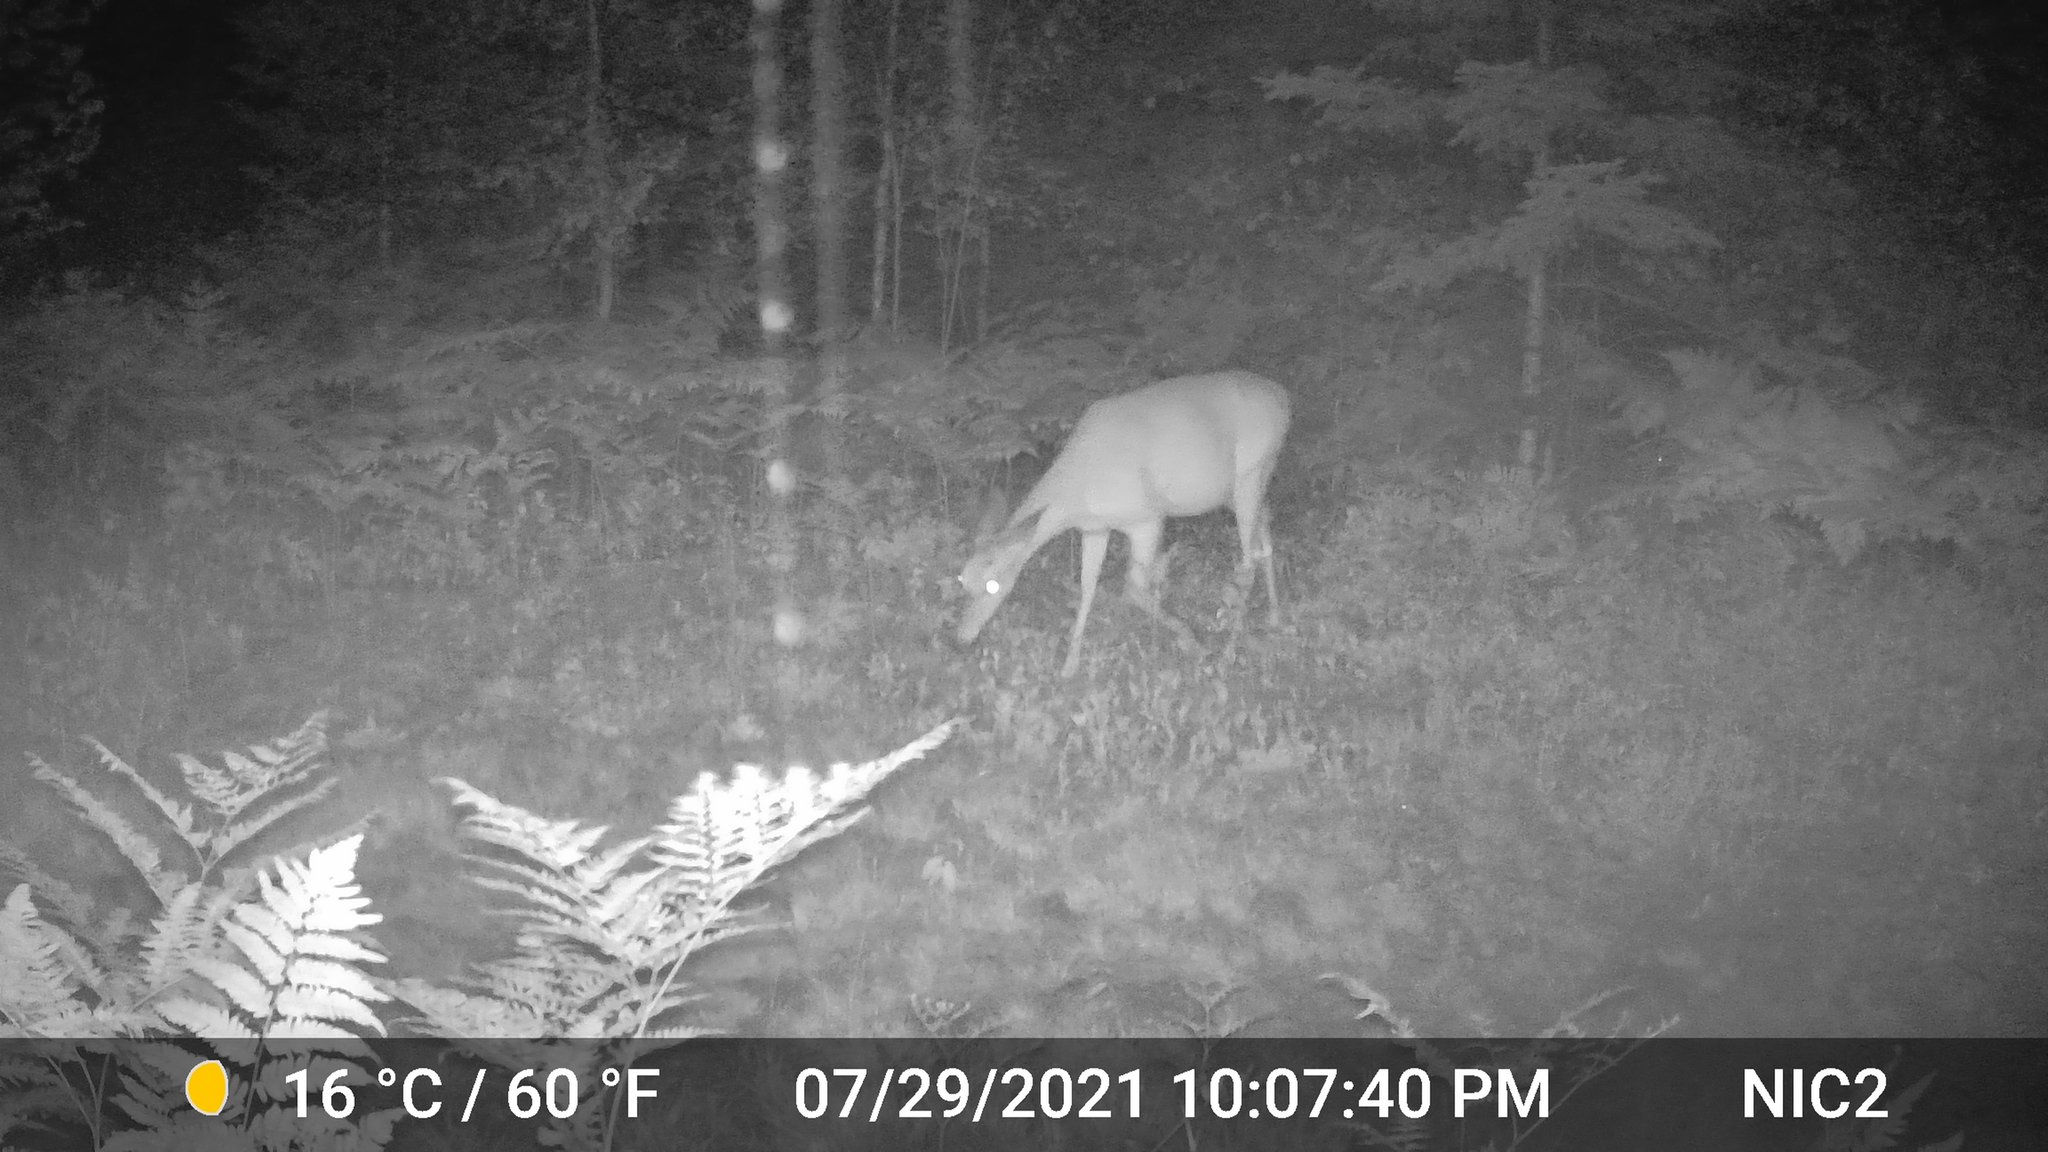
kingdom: Animalia
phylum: Chordata
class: Mammalia
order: Artiodactyla
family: Cervidae
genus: Odocoileus
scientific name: Odocoileus virginianus
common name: White-tailed deer
